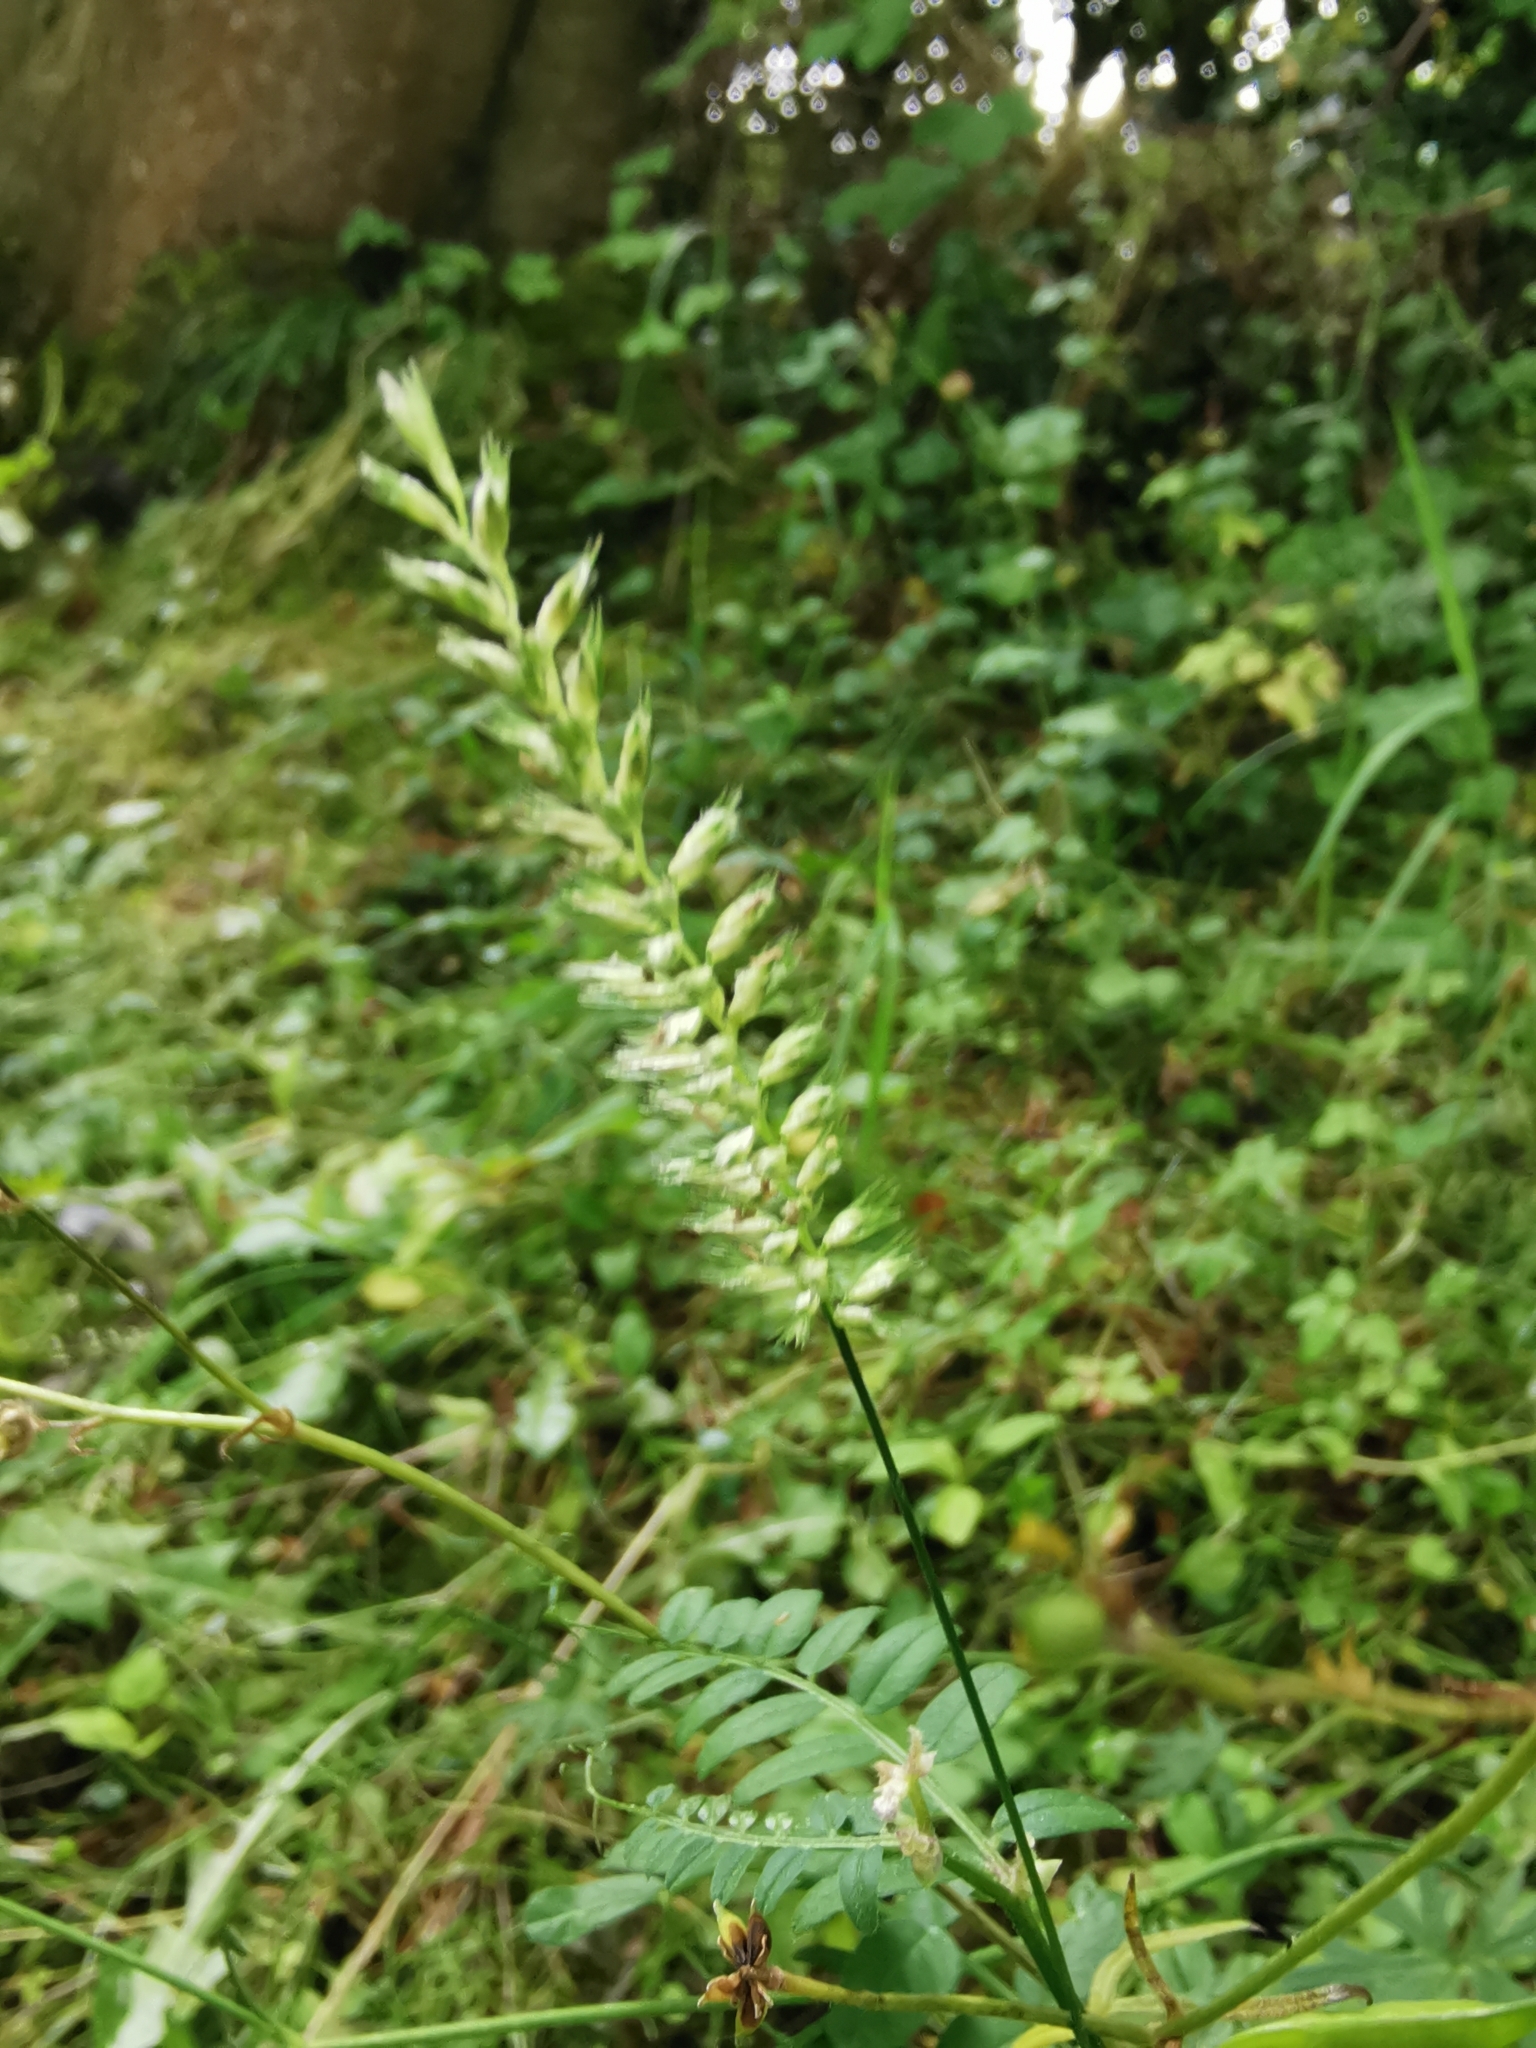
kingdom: Plantae
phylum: Tracheophyta
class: Liliopsida
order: Poales
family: Poaceae
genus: Cynosurus
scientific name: Cynosurus cristatus
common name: Crested dog's-tail
